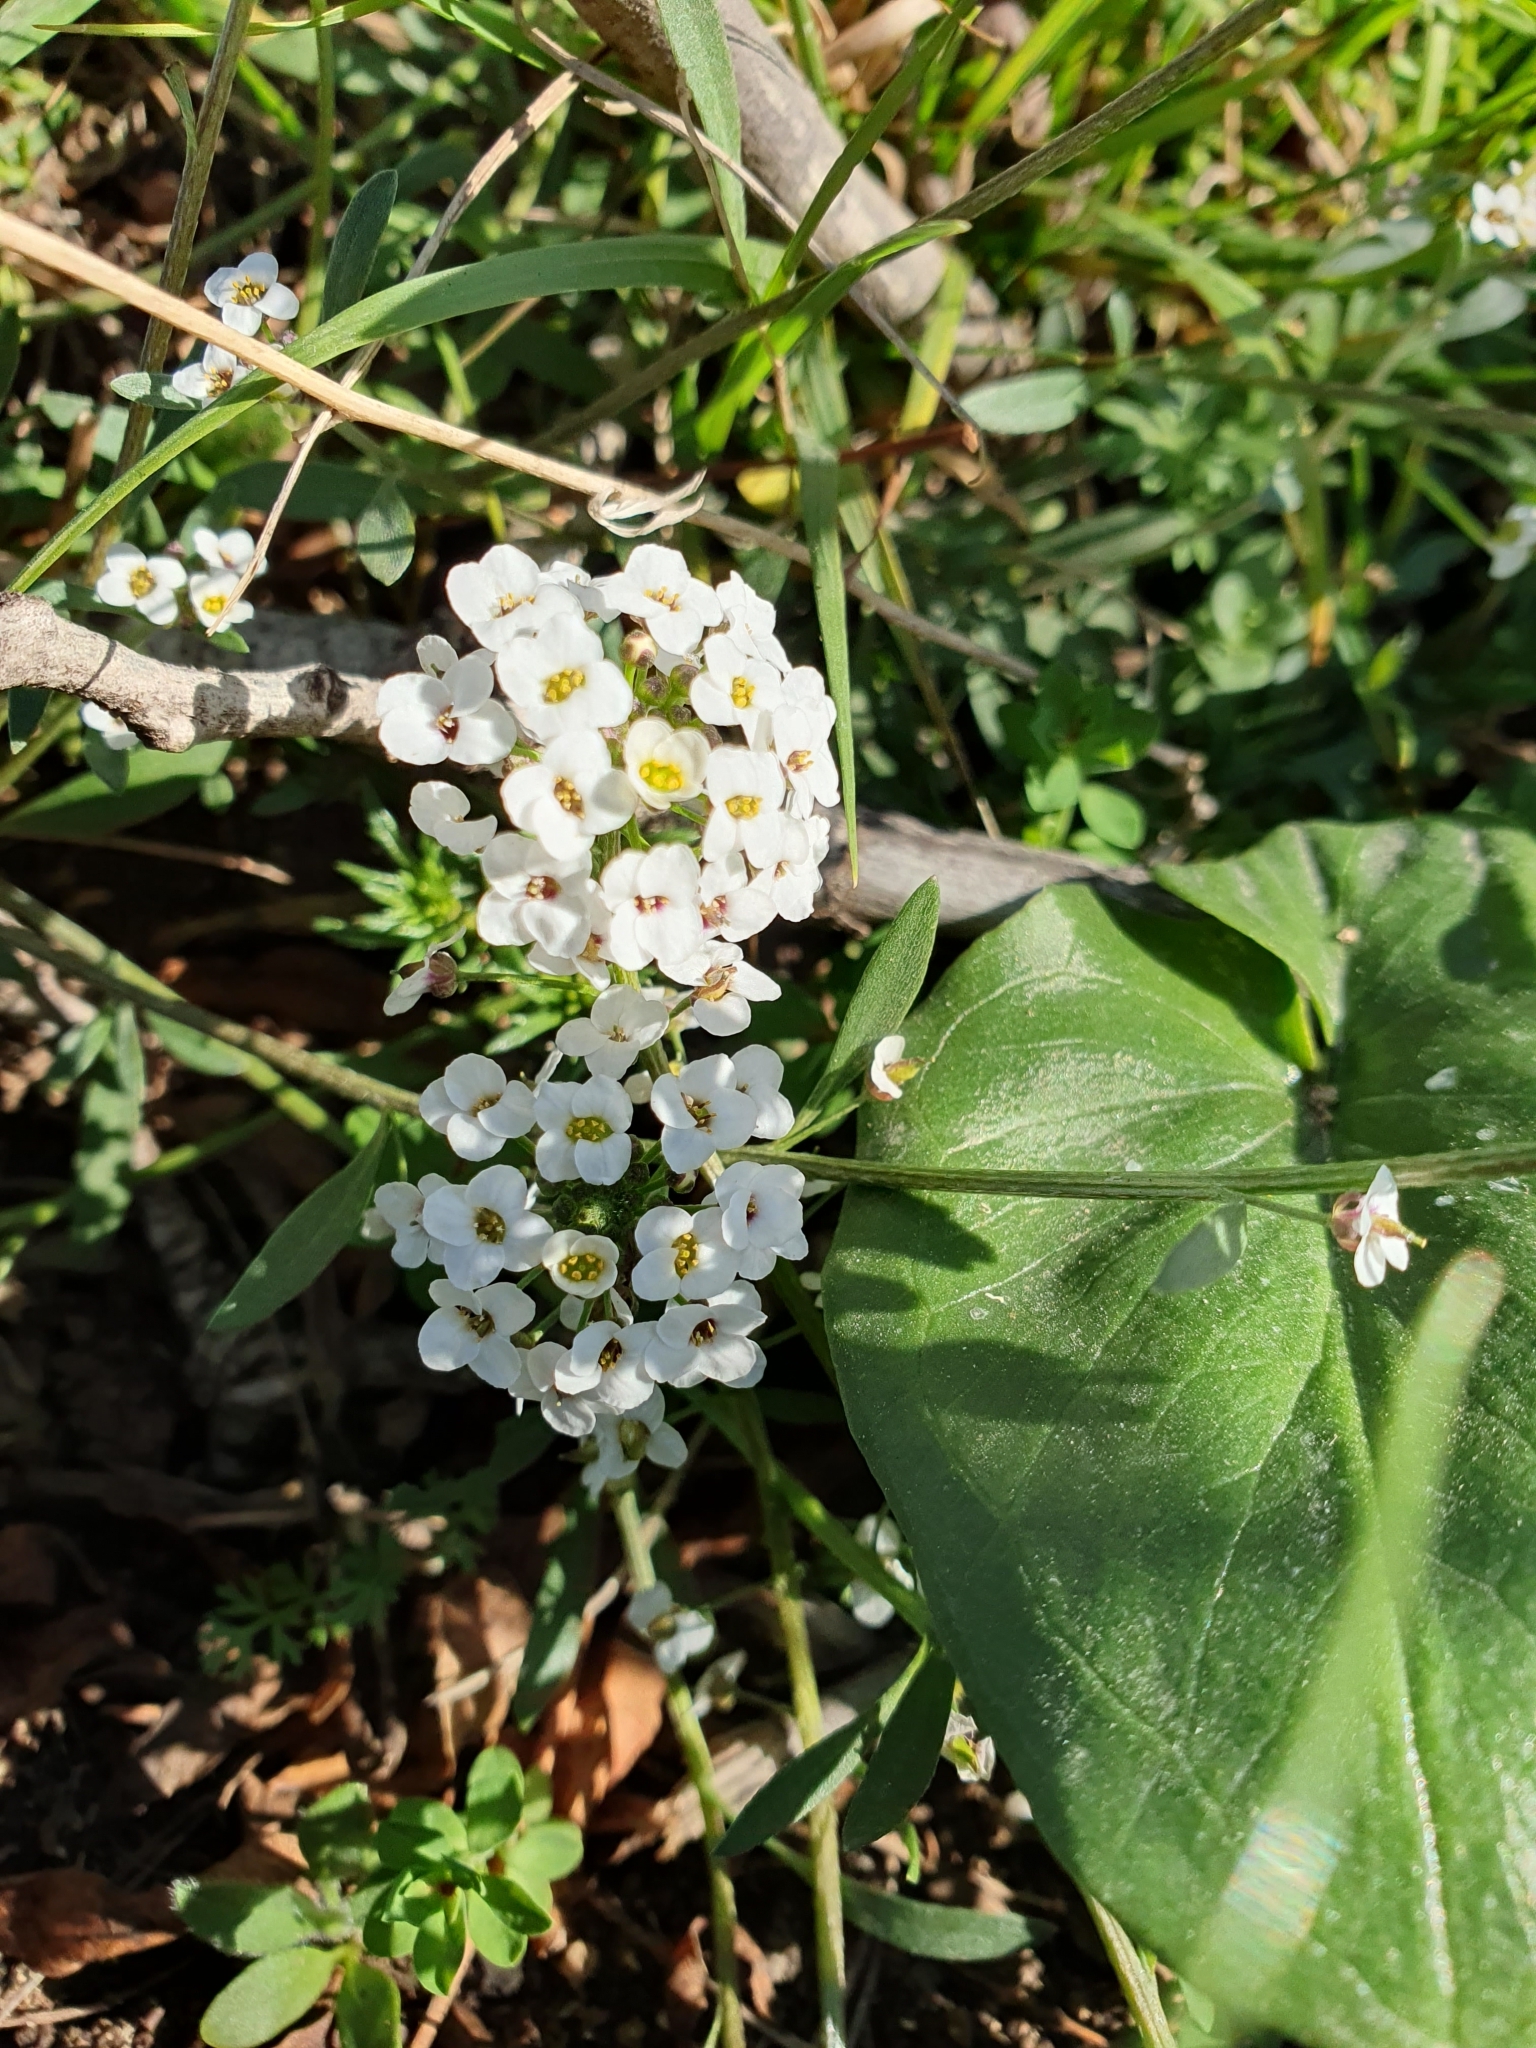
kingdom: Plantae
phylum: Tracheophyta
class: Magnoliopsida
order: Brassicales
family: Brassicaceae
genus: Lobularia
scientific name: Lobularia maritima
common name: Sweet alison
